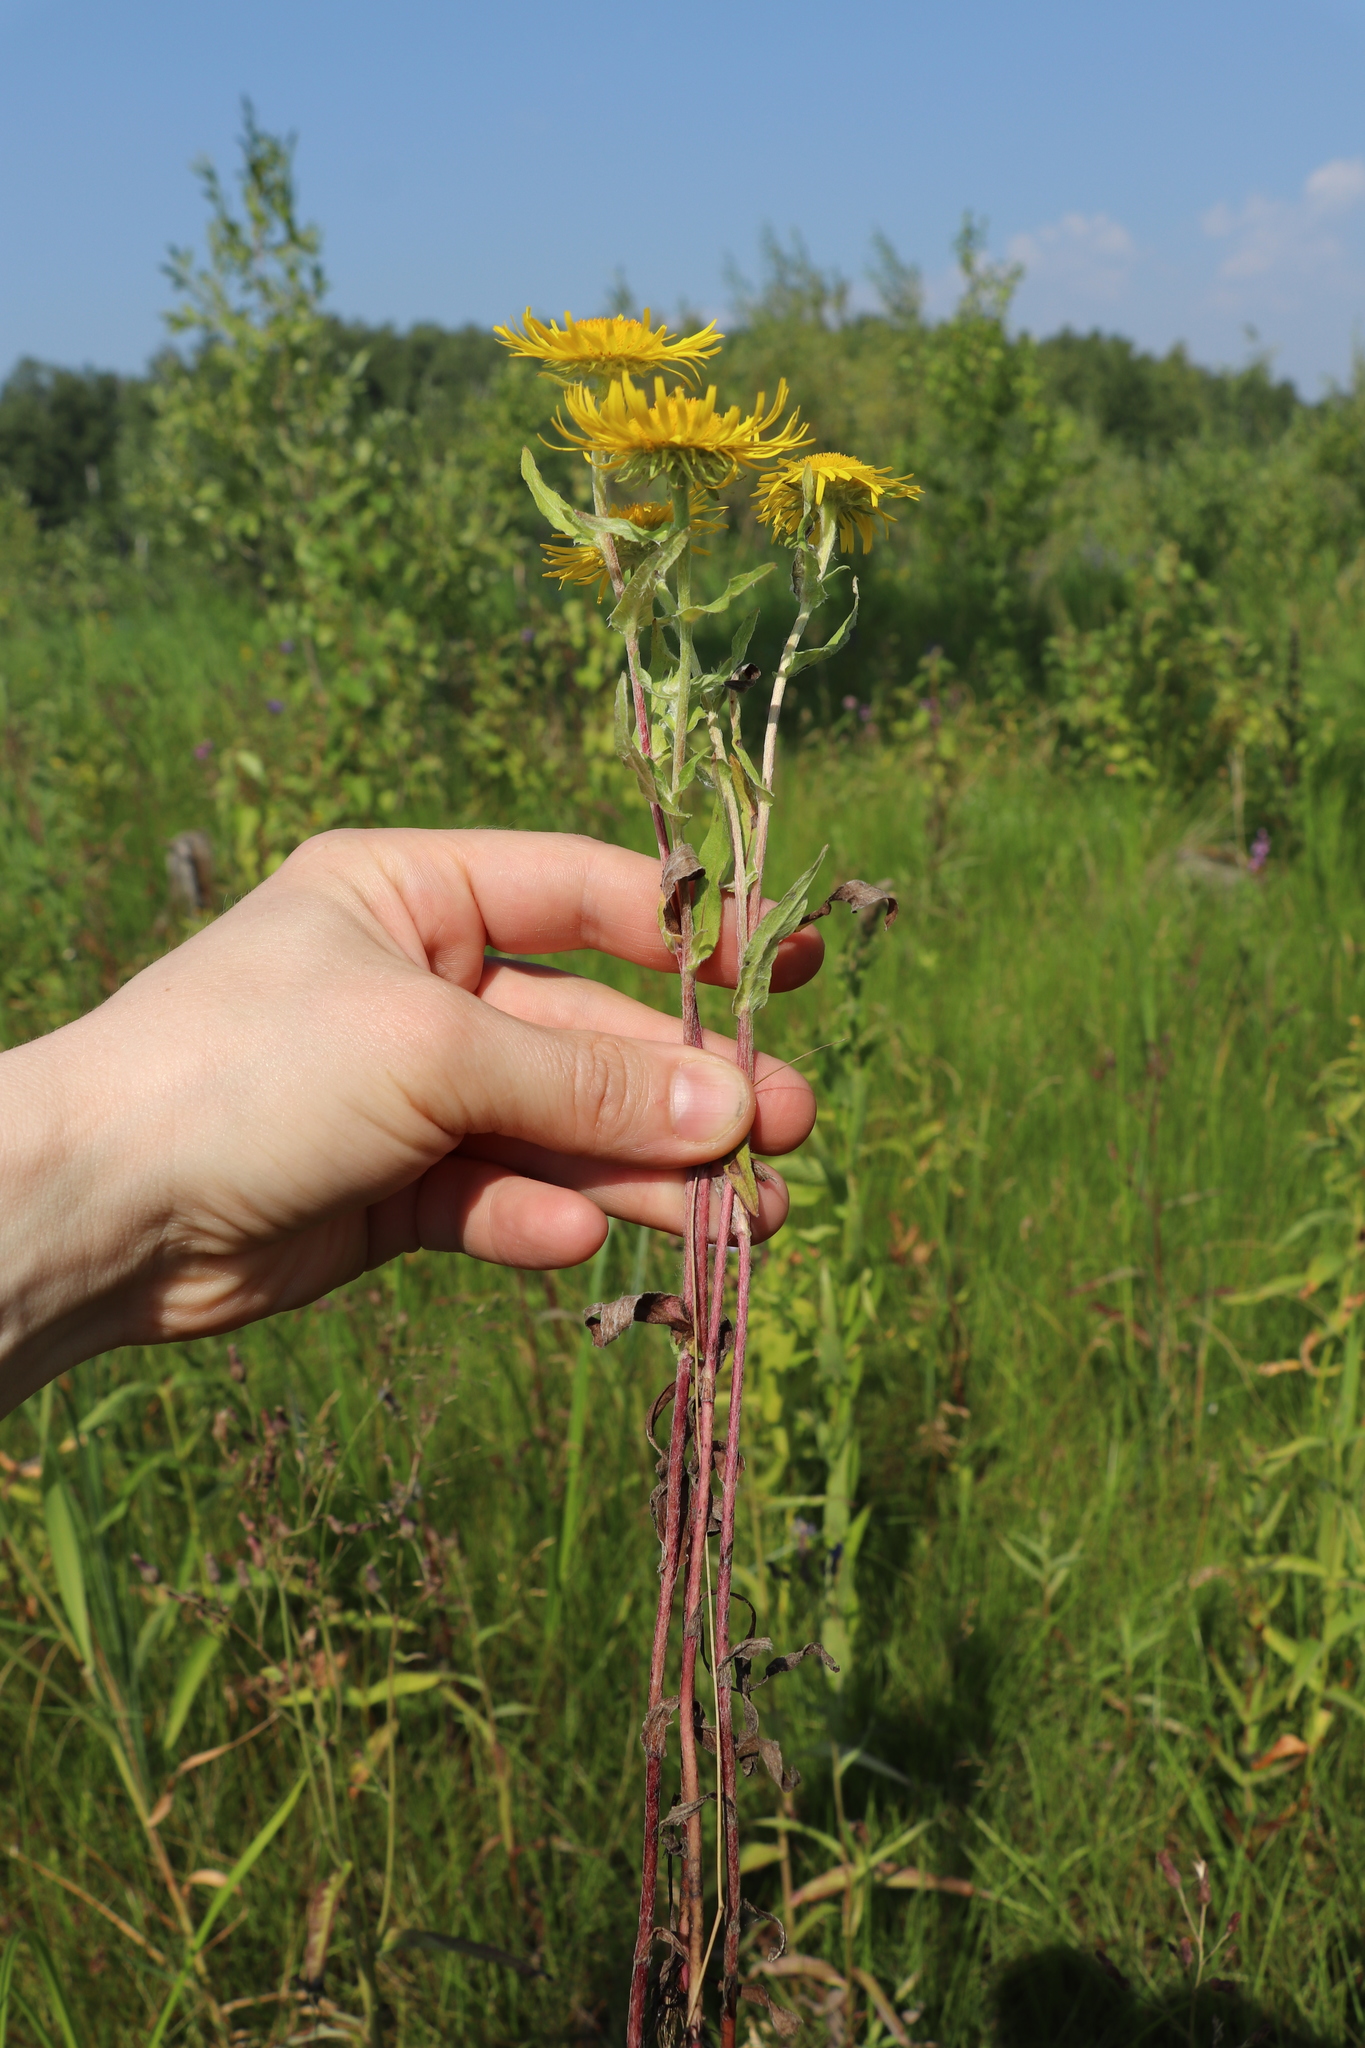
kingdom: Plantae
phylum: Tracheophyta
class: Magnoliopsida
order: Asterales
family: Asteraceae
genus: Pentanema
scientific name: Pentanema britannicum
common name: British elecampane
